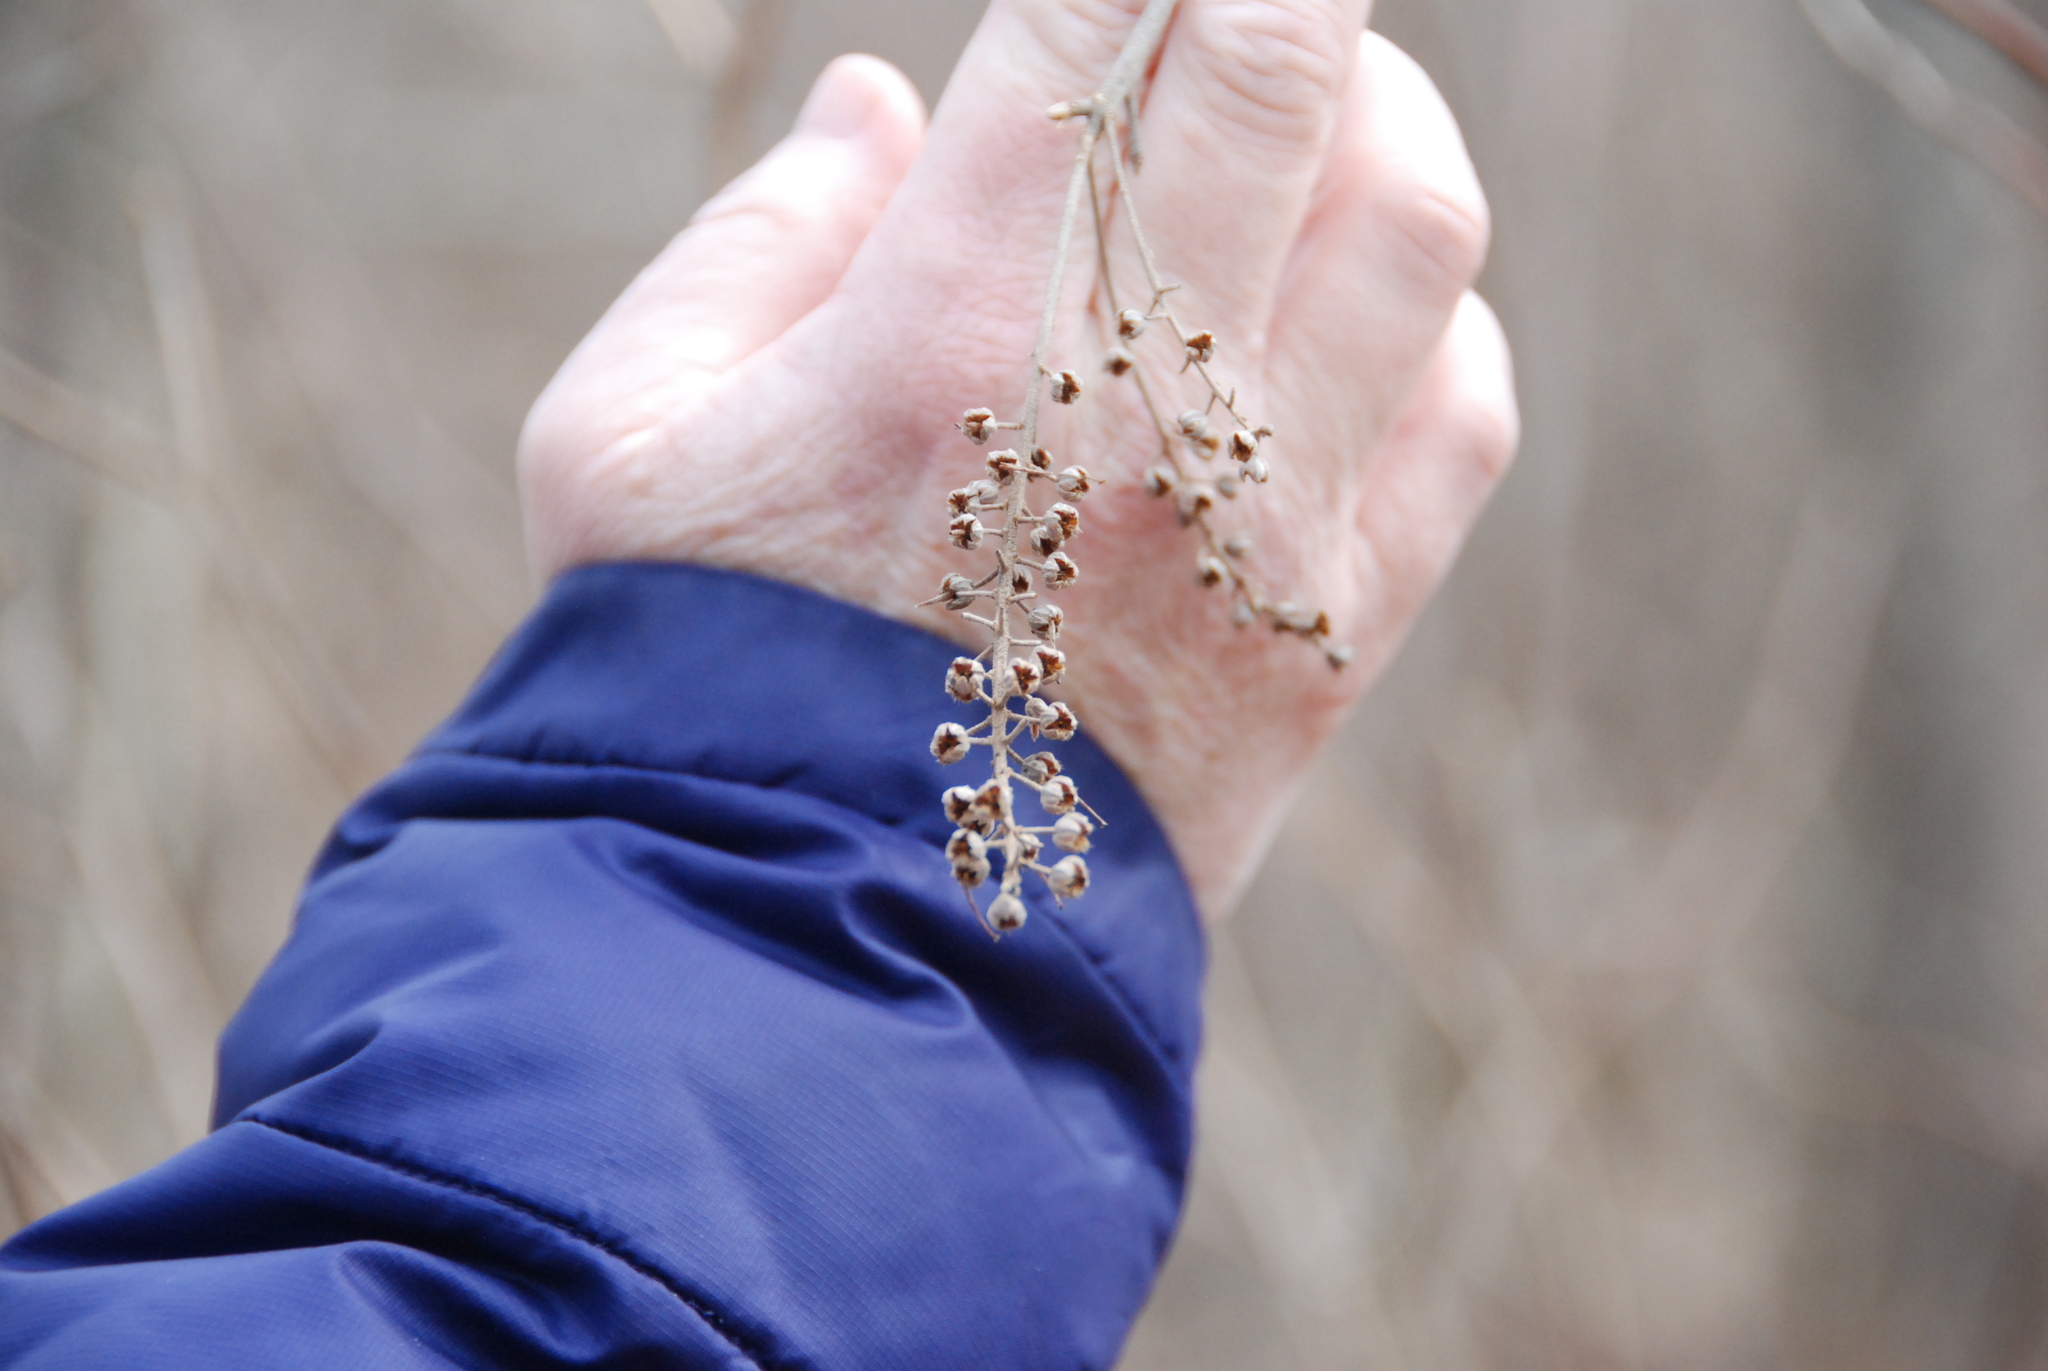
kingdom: Plantae
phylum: Tracheophyta
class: Magnoliopsida
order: Ericales
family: Clethraceae
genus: Clethra
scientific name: Clethra alnifolia
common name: Sweet pepperbush
